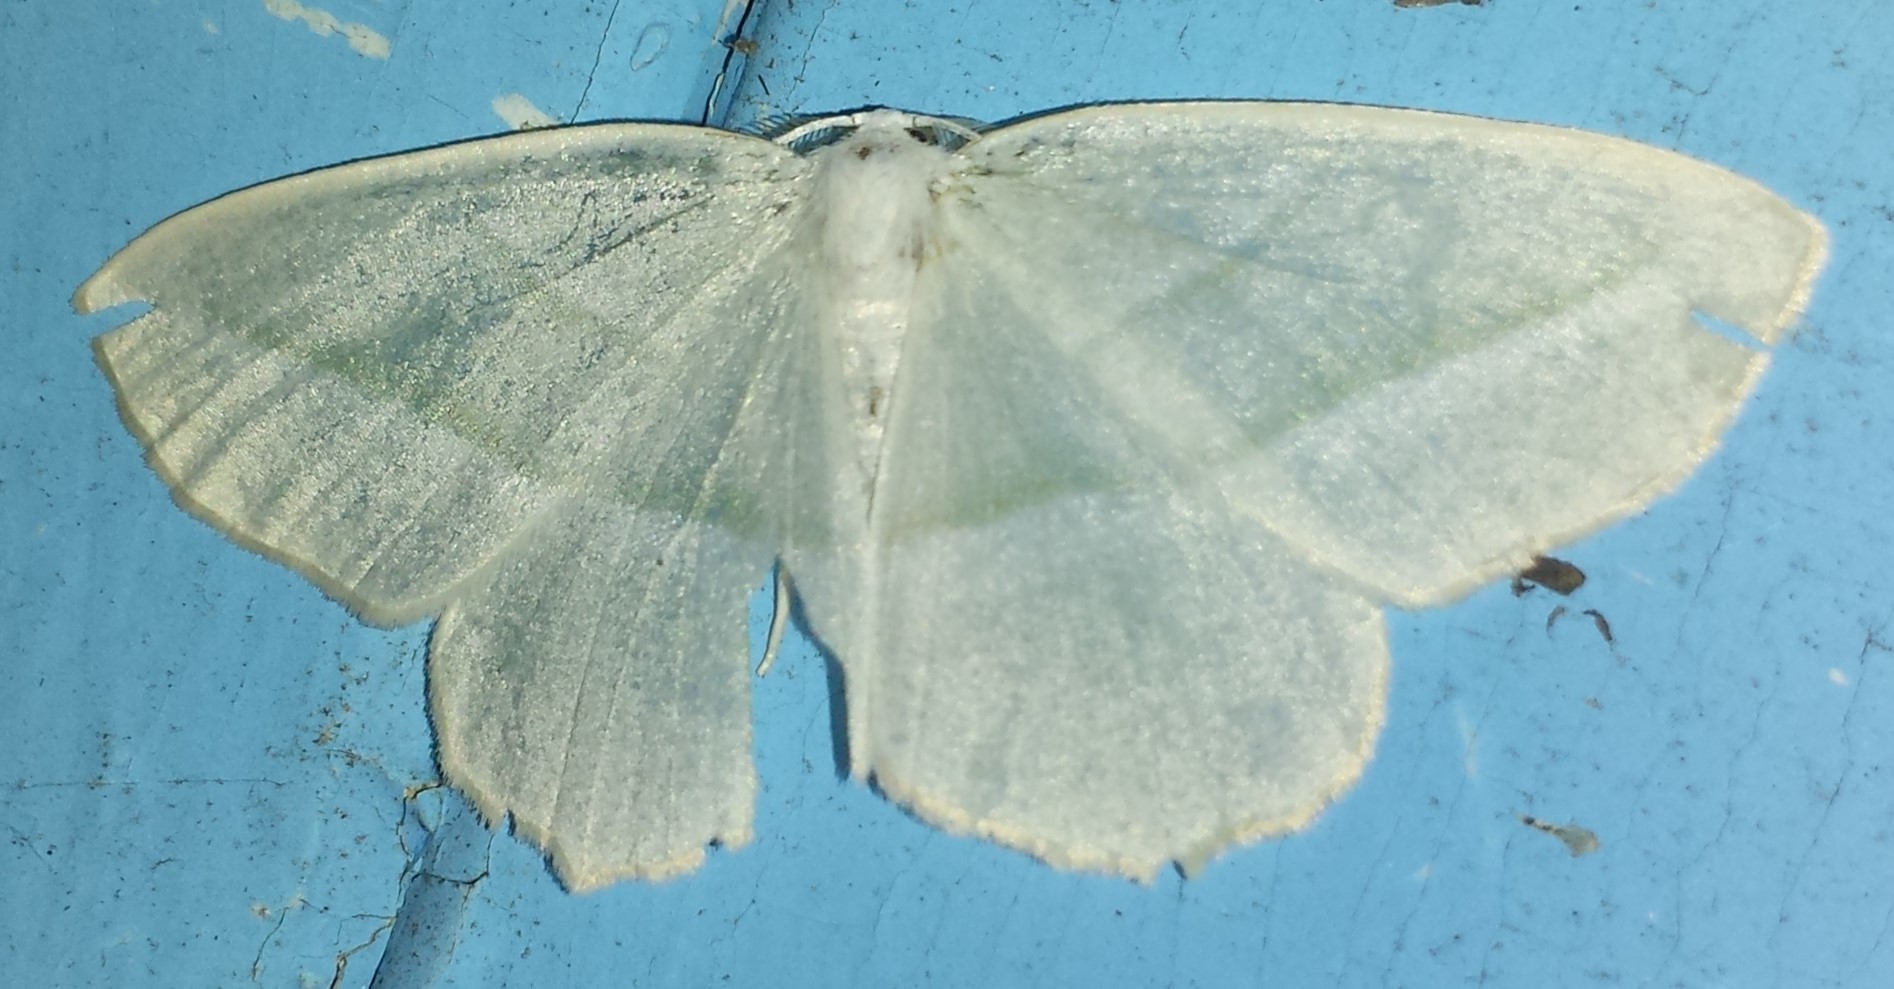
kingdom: Animalia
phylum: Arthropoda
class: Insecta
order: Lepidoptera
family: Geometridae
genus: Campaea
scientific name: Campaea perlata
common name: Fringed looper
